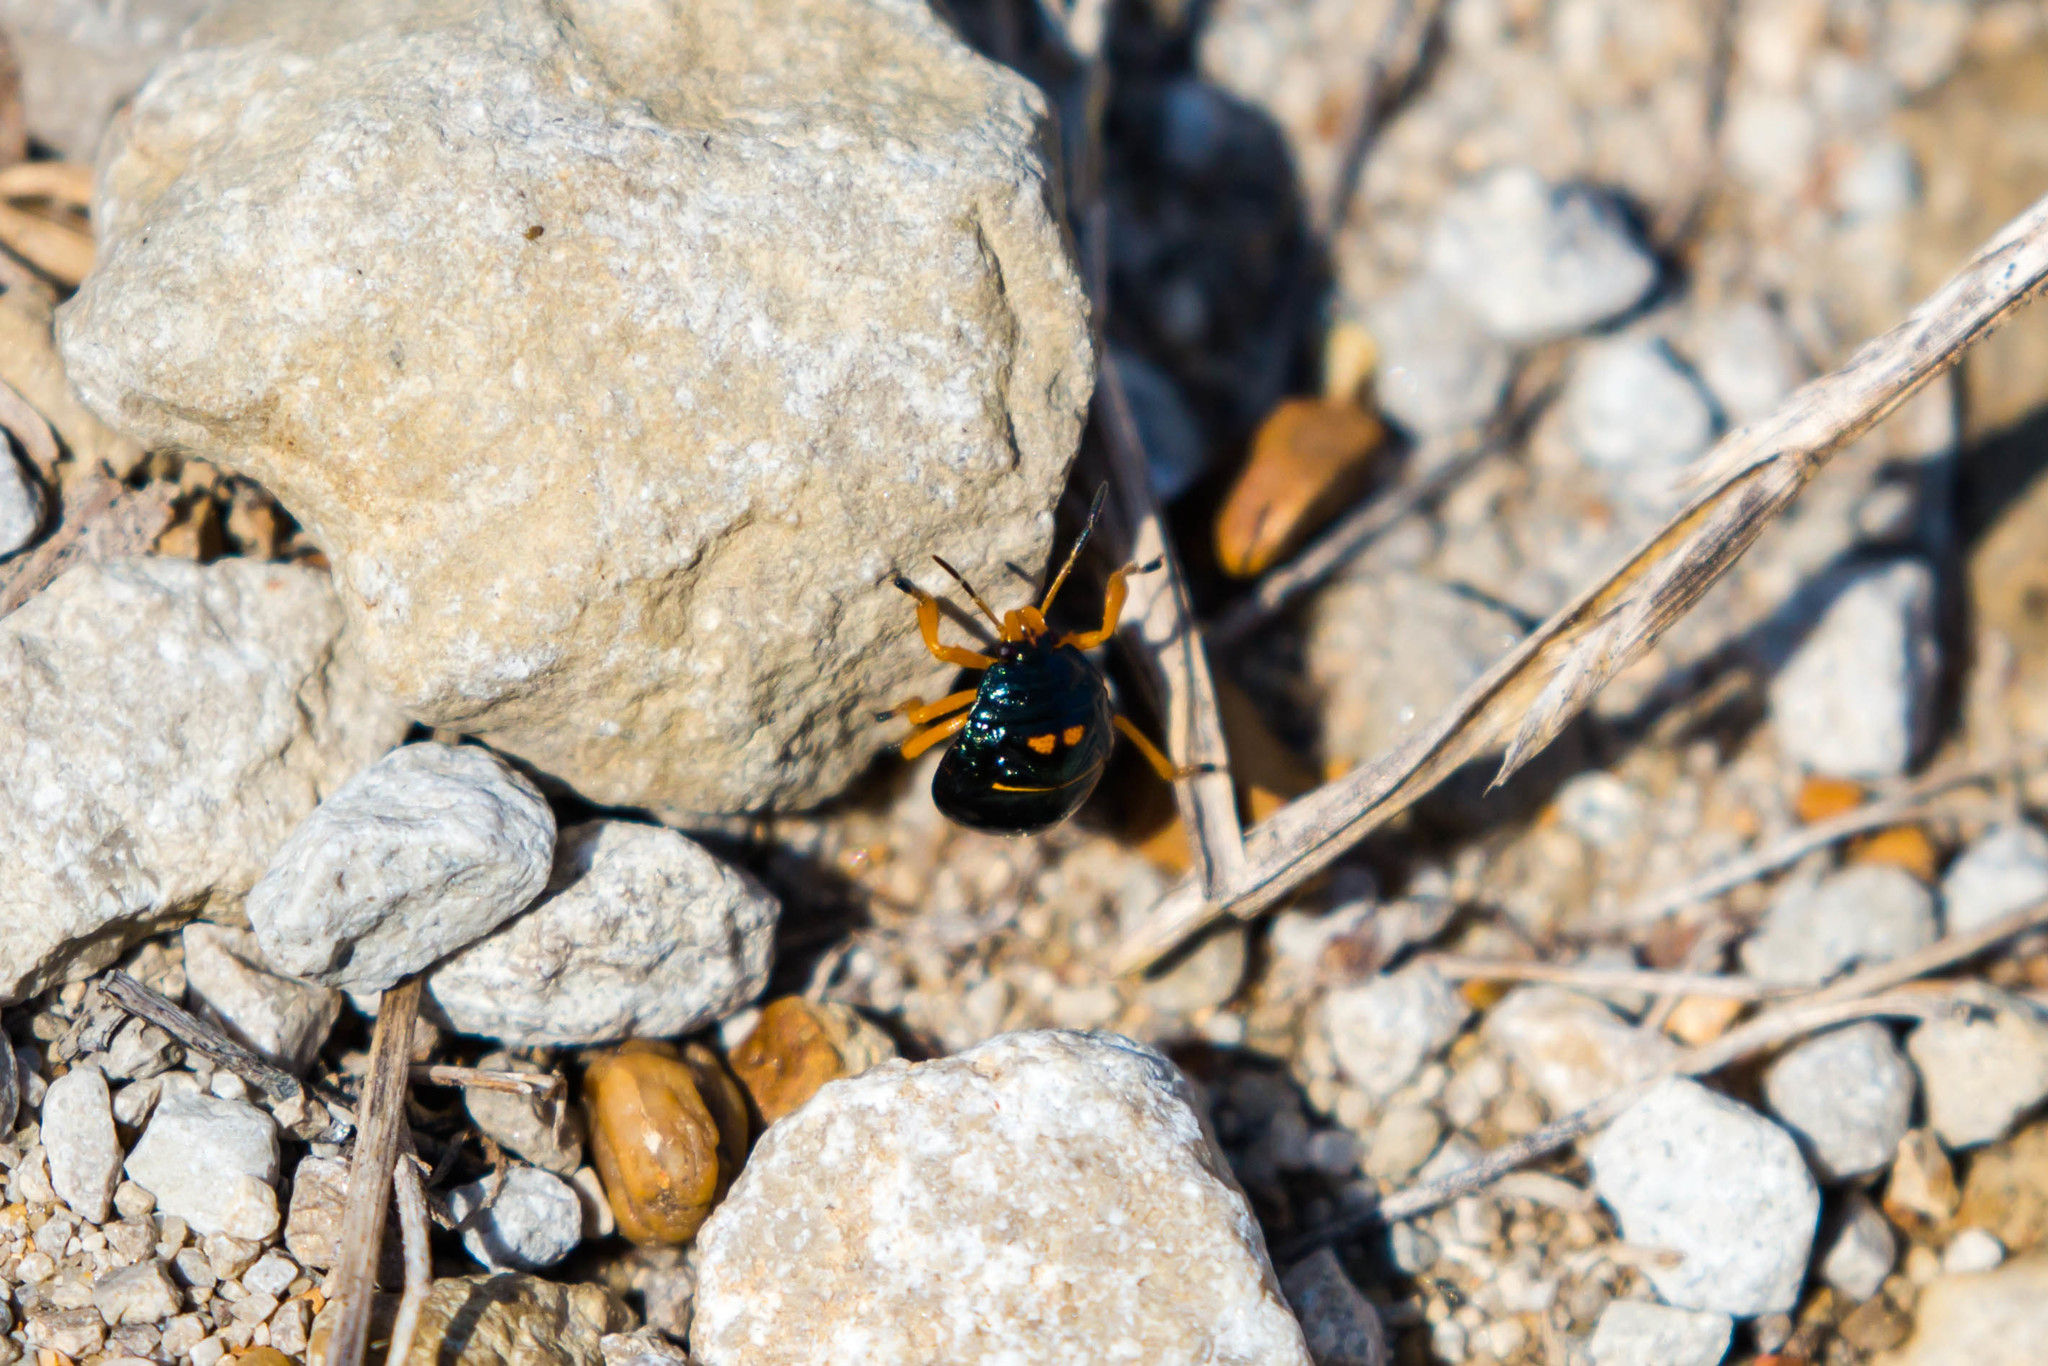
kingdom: Animalia
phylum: Arthropoda
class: Insecta
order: Hemiptera
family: Pentatomidae
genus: Stiretrus
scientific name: Stiretrus anchorago
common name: Anchor stink bug
